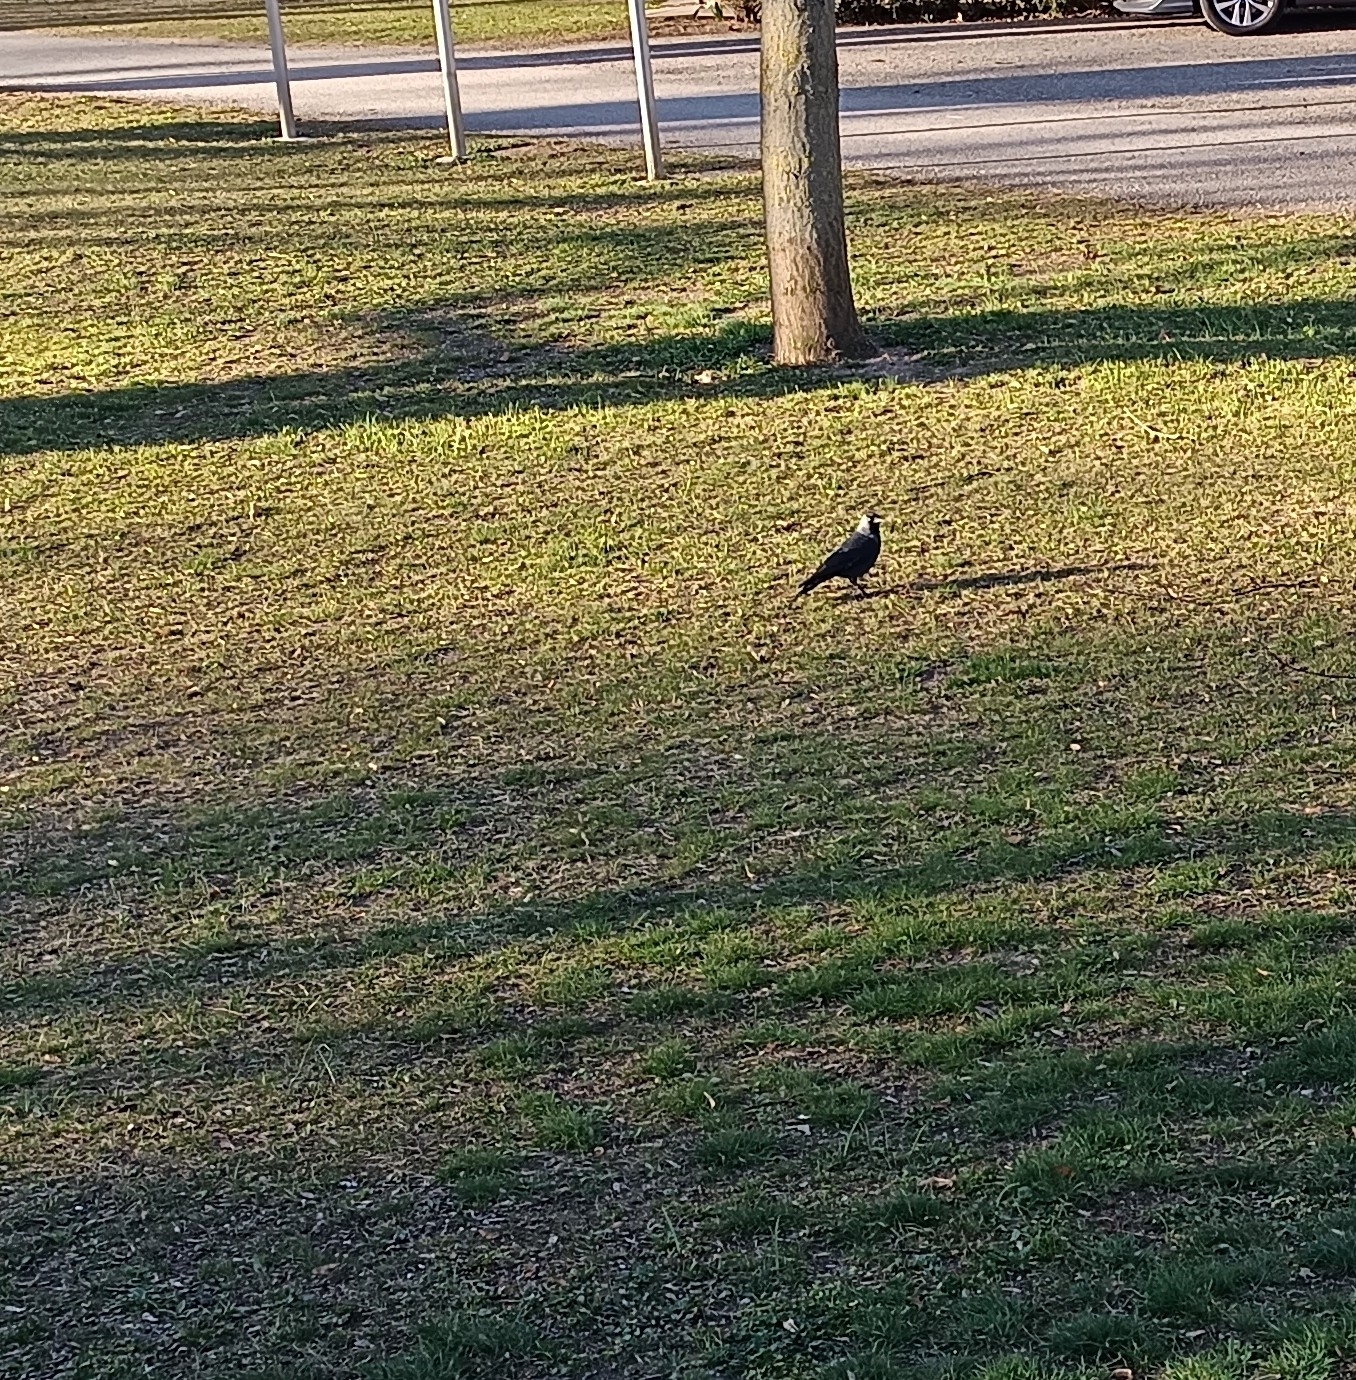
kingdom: Animalia
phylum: Chordata
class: Aves
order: Passeriformes
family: Corvidae
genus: Coloeus
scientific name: Coloeus monedula
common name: Western jackdaw
